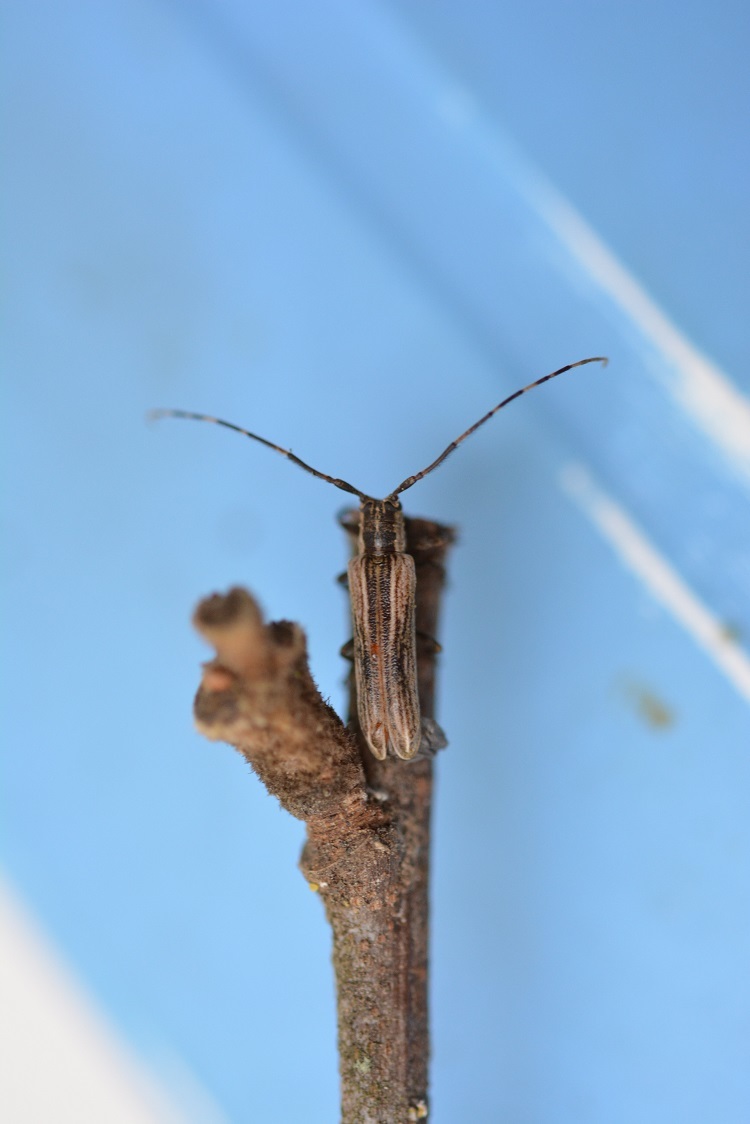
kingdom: Animalia
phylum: Arthropoda
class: Insecta
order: Coleoptera
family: Cerambycidae
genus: Cacostola
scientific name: Cacostola rugicollis
